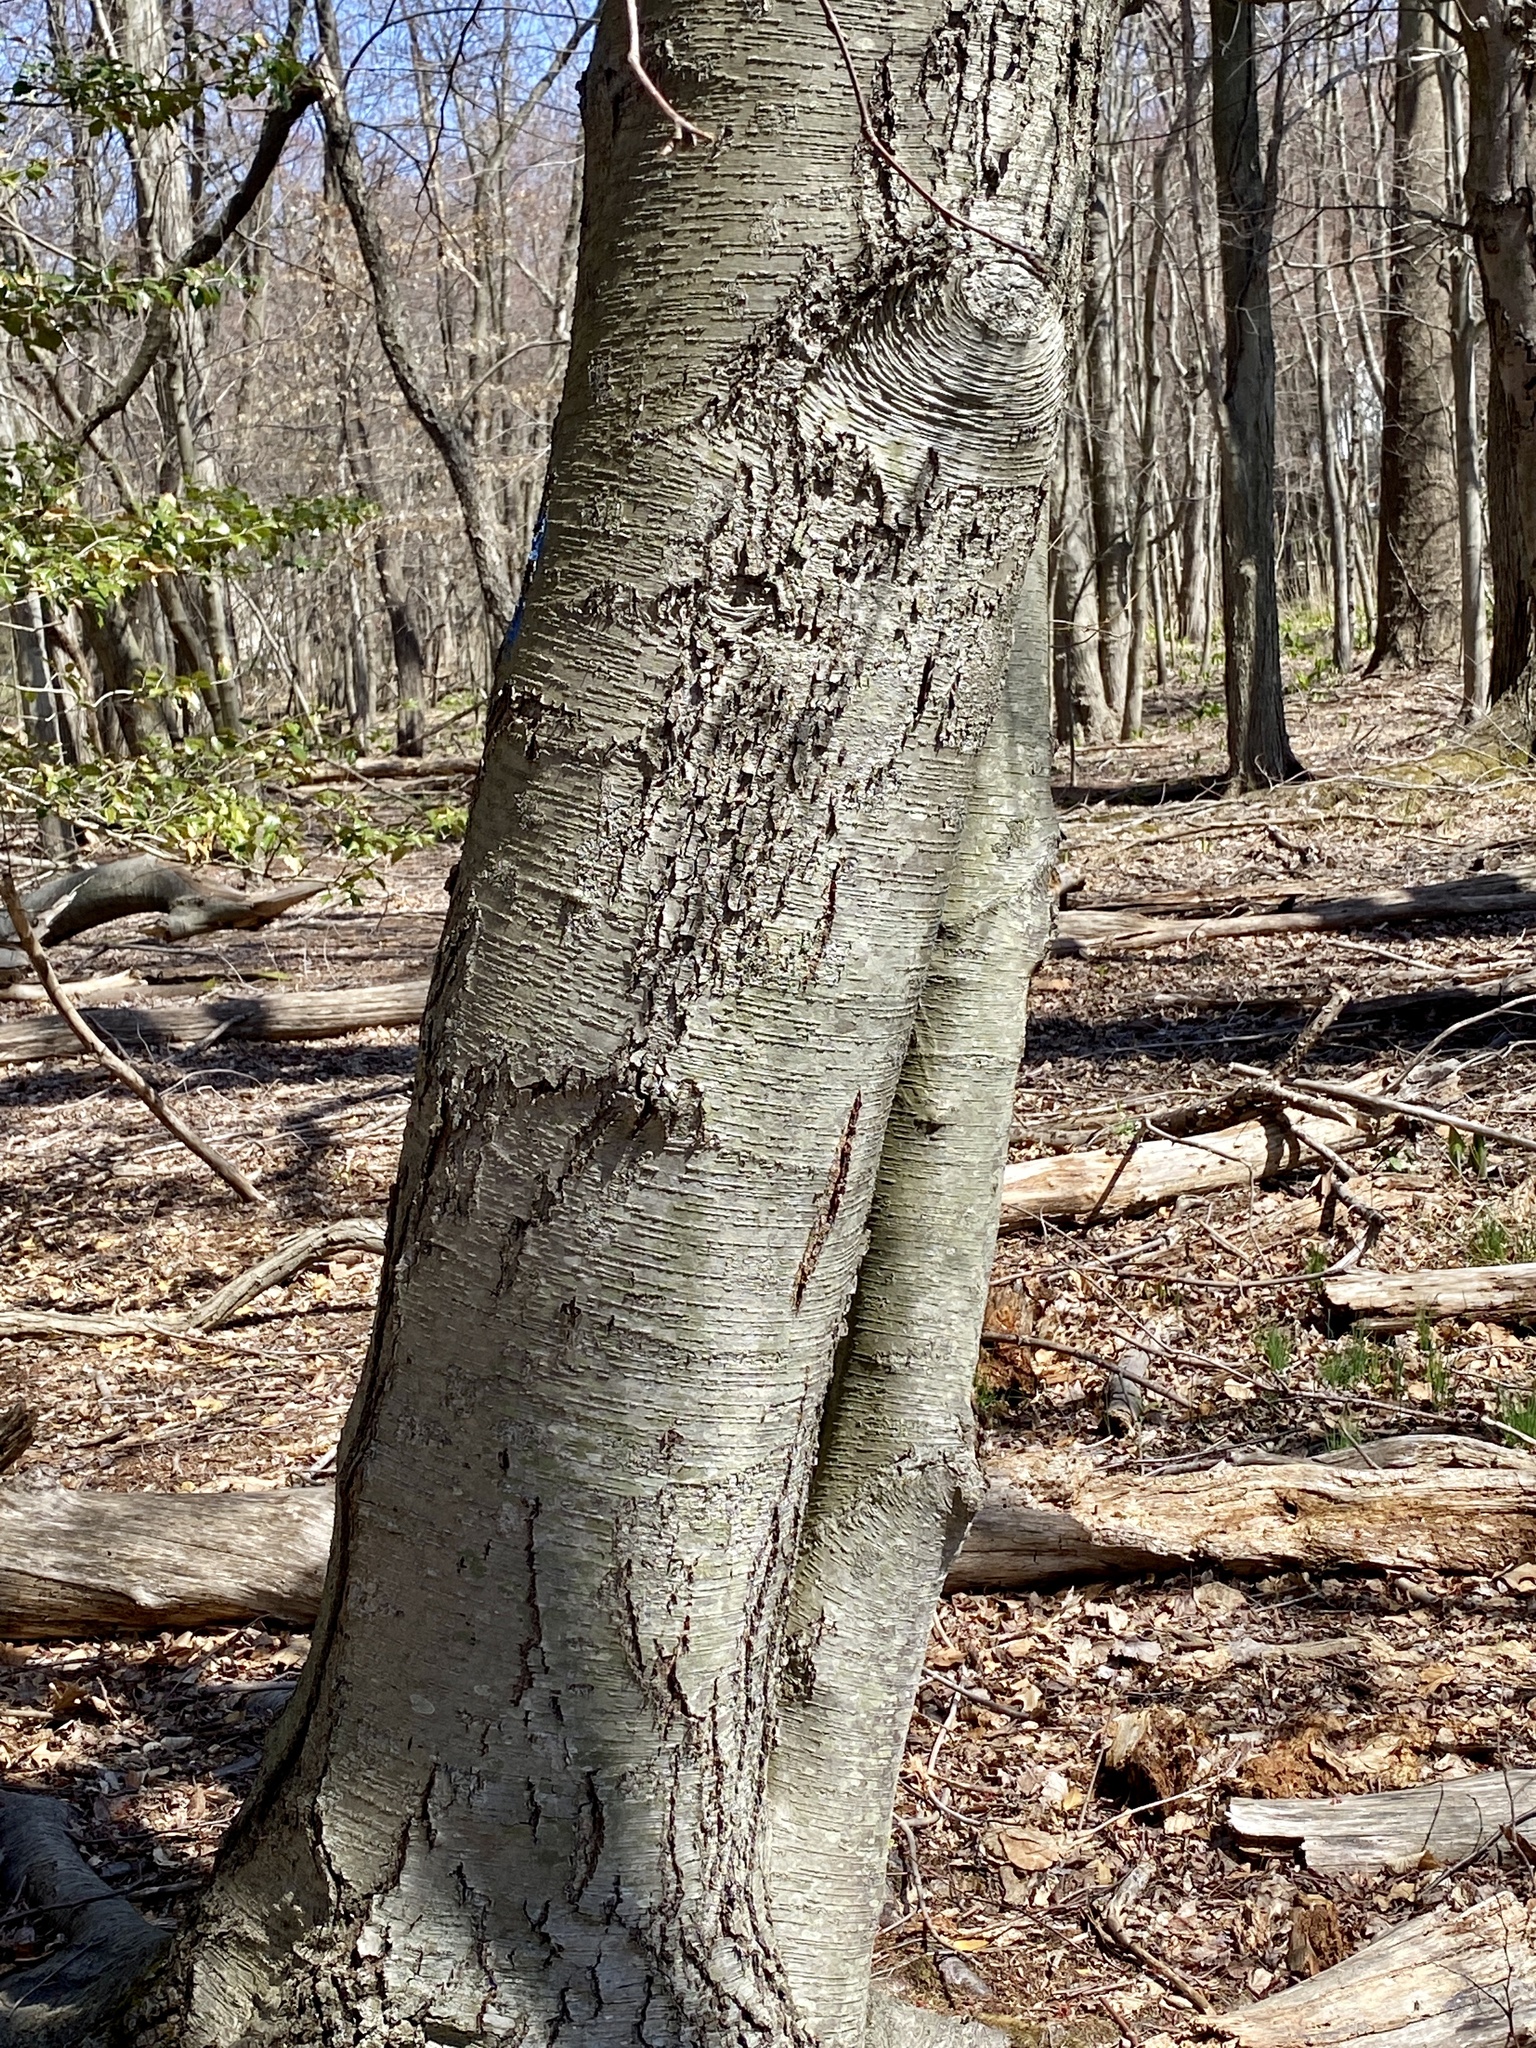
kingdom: Plantae
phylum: Tracheophyta
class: Magnoliopsida
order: Fagales
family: Betulaceae
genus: Betula
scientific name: Betula lenta
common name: Black birch
